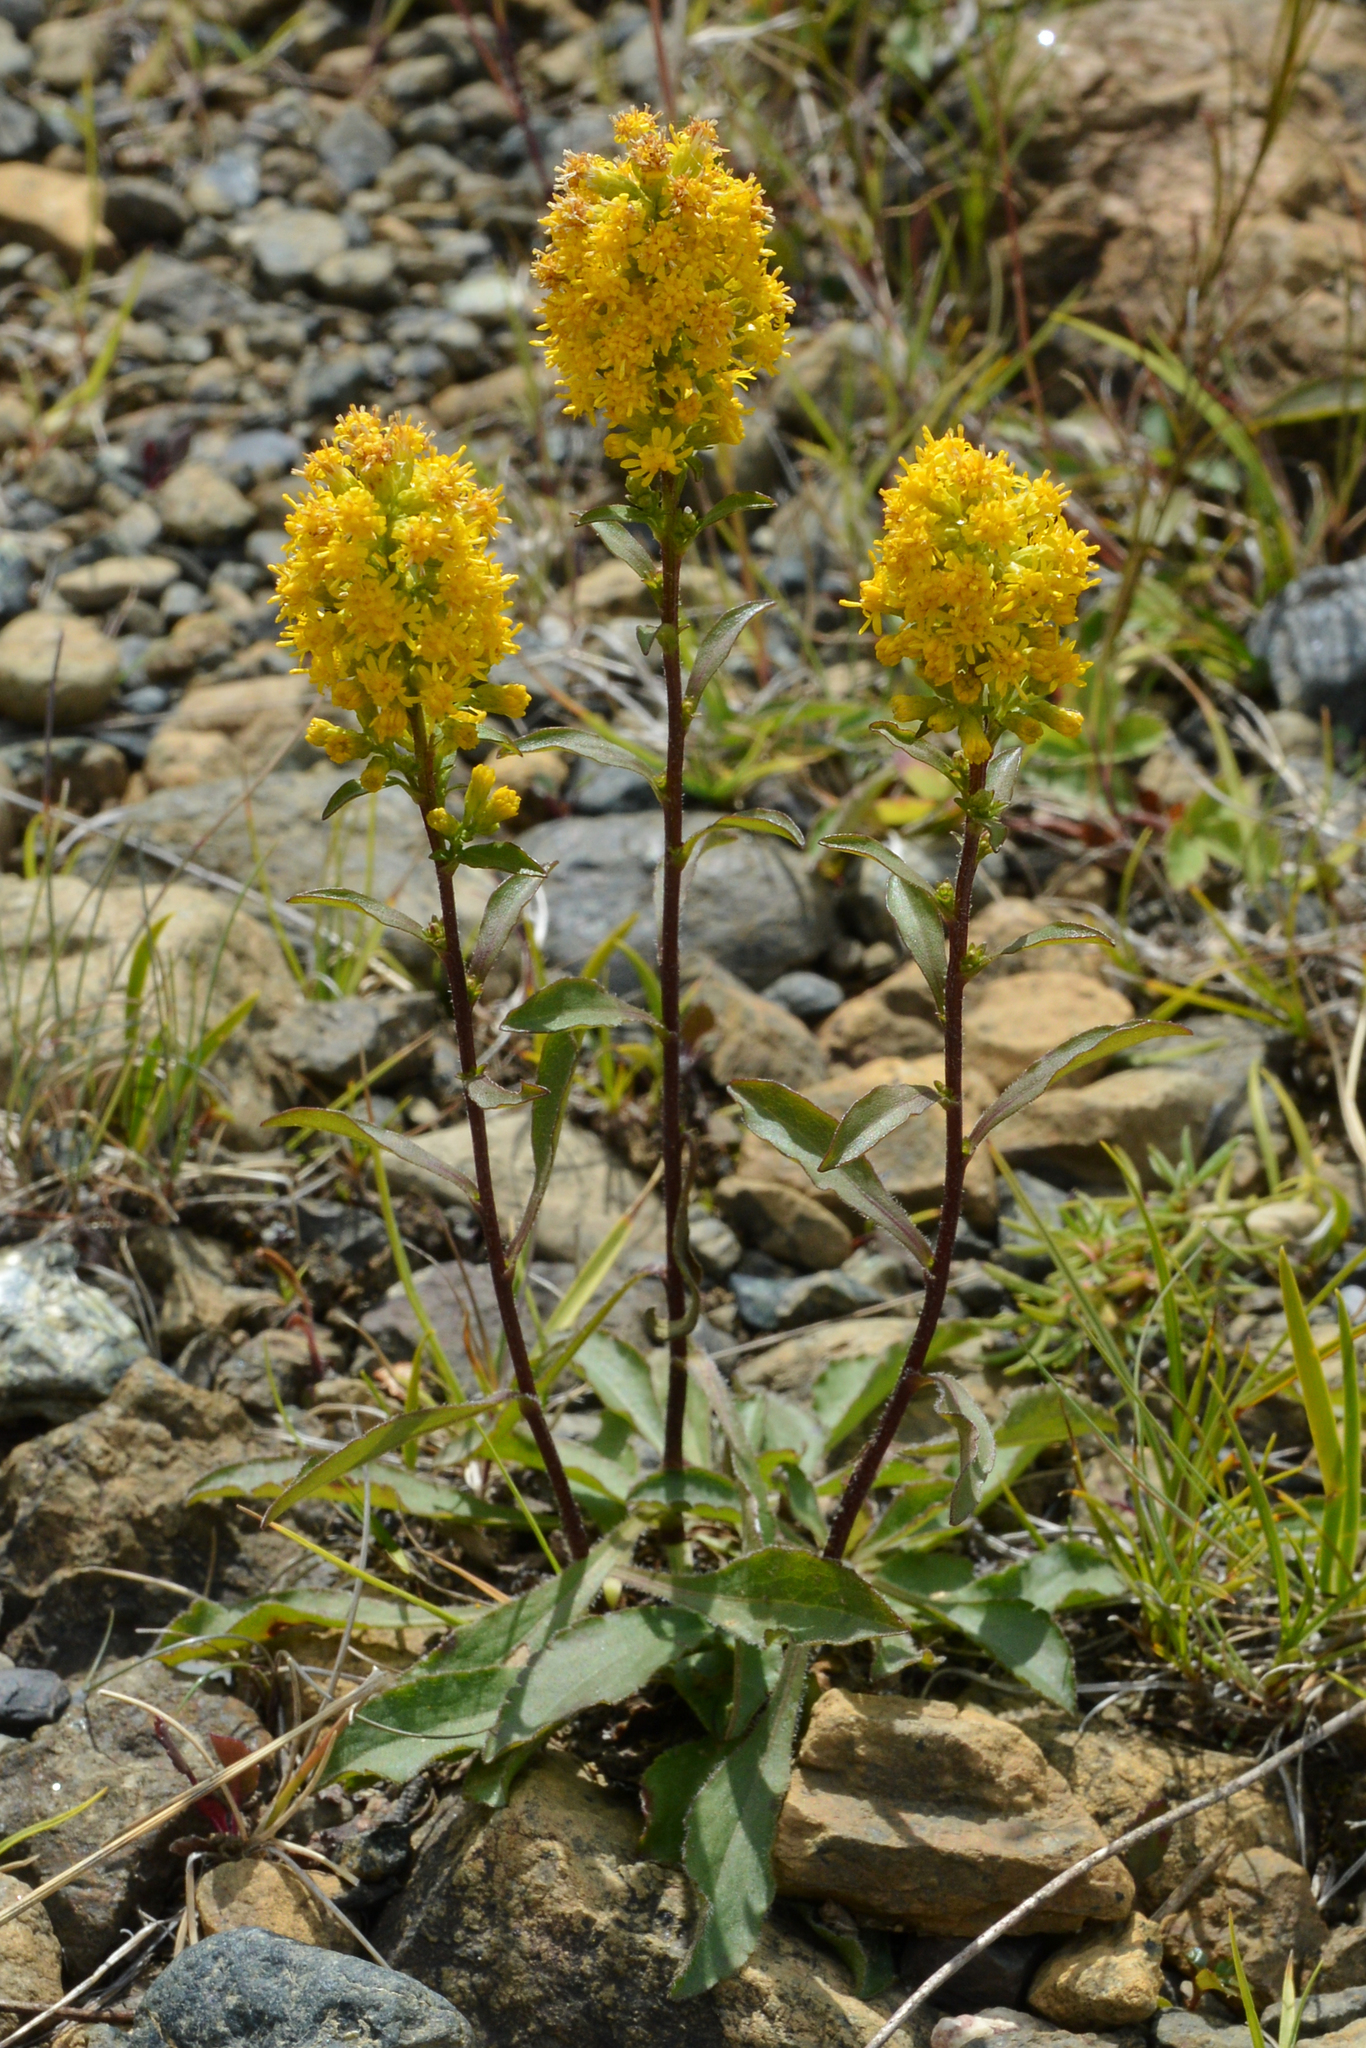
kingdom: Plantae
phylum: Tracheophyta
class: Magnoliopsida
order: Asterales
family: Asteraceae
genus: Solidago
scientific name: Solidago hispida
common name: Hairy goldenrod
